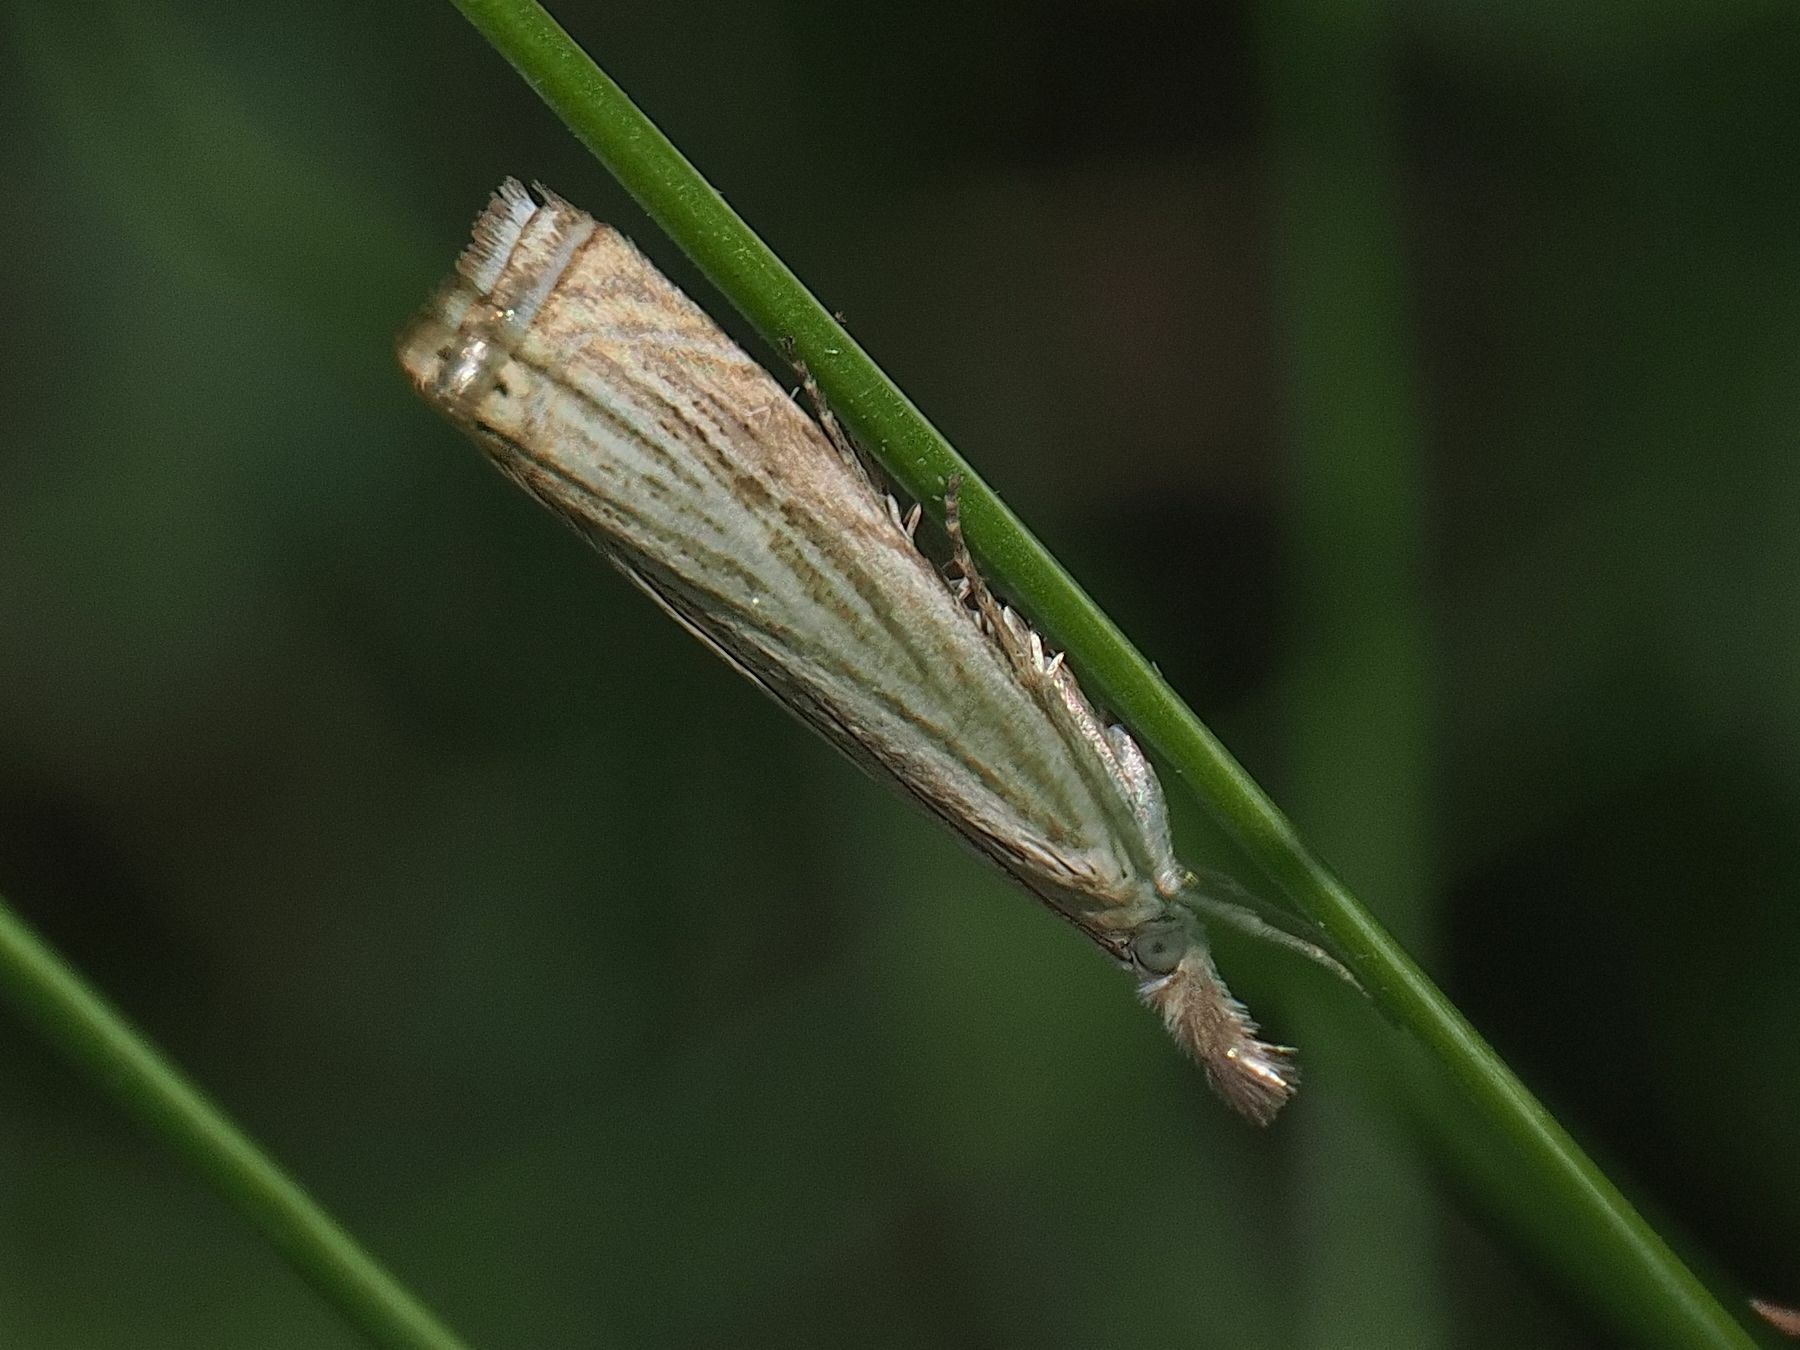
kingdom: Animalia
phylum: Arthropoda
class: Insecta
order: Lepidoptera
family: Crambidae
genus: Chrysoteuchia
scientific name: Chrysoteuchia culmella
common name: Garden grass-veneer
